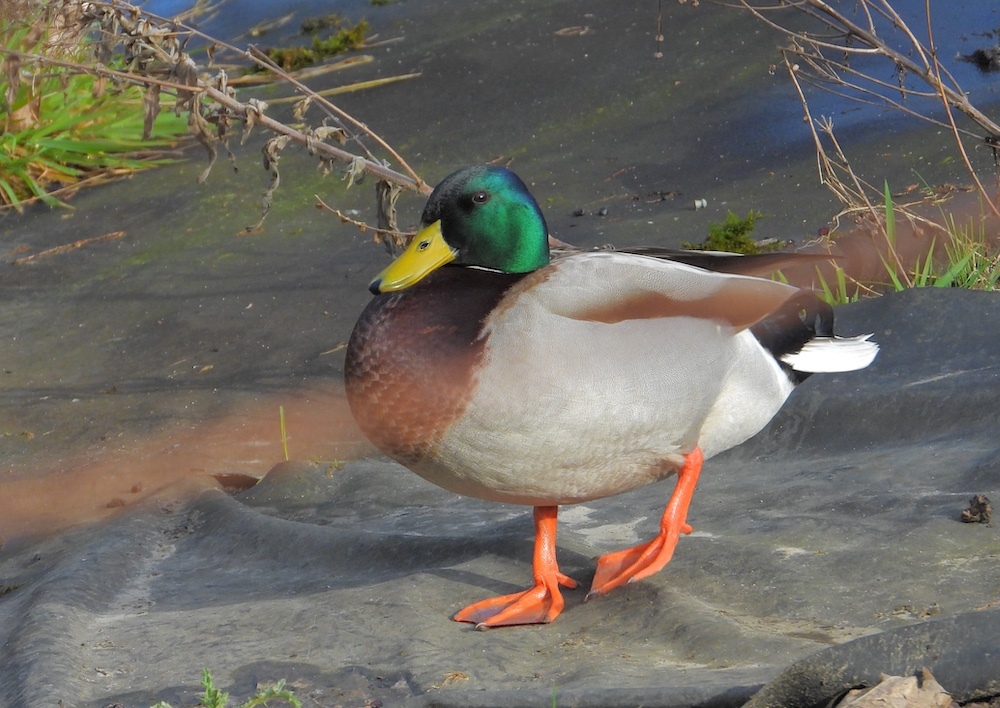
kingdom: Animalia
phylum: Chordata
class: Aves
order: Anseriformes
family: Anatidae
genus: Anas
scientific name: Anas platyrhynchos
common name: Mallard
